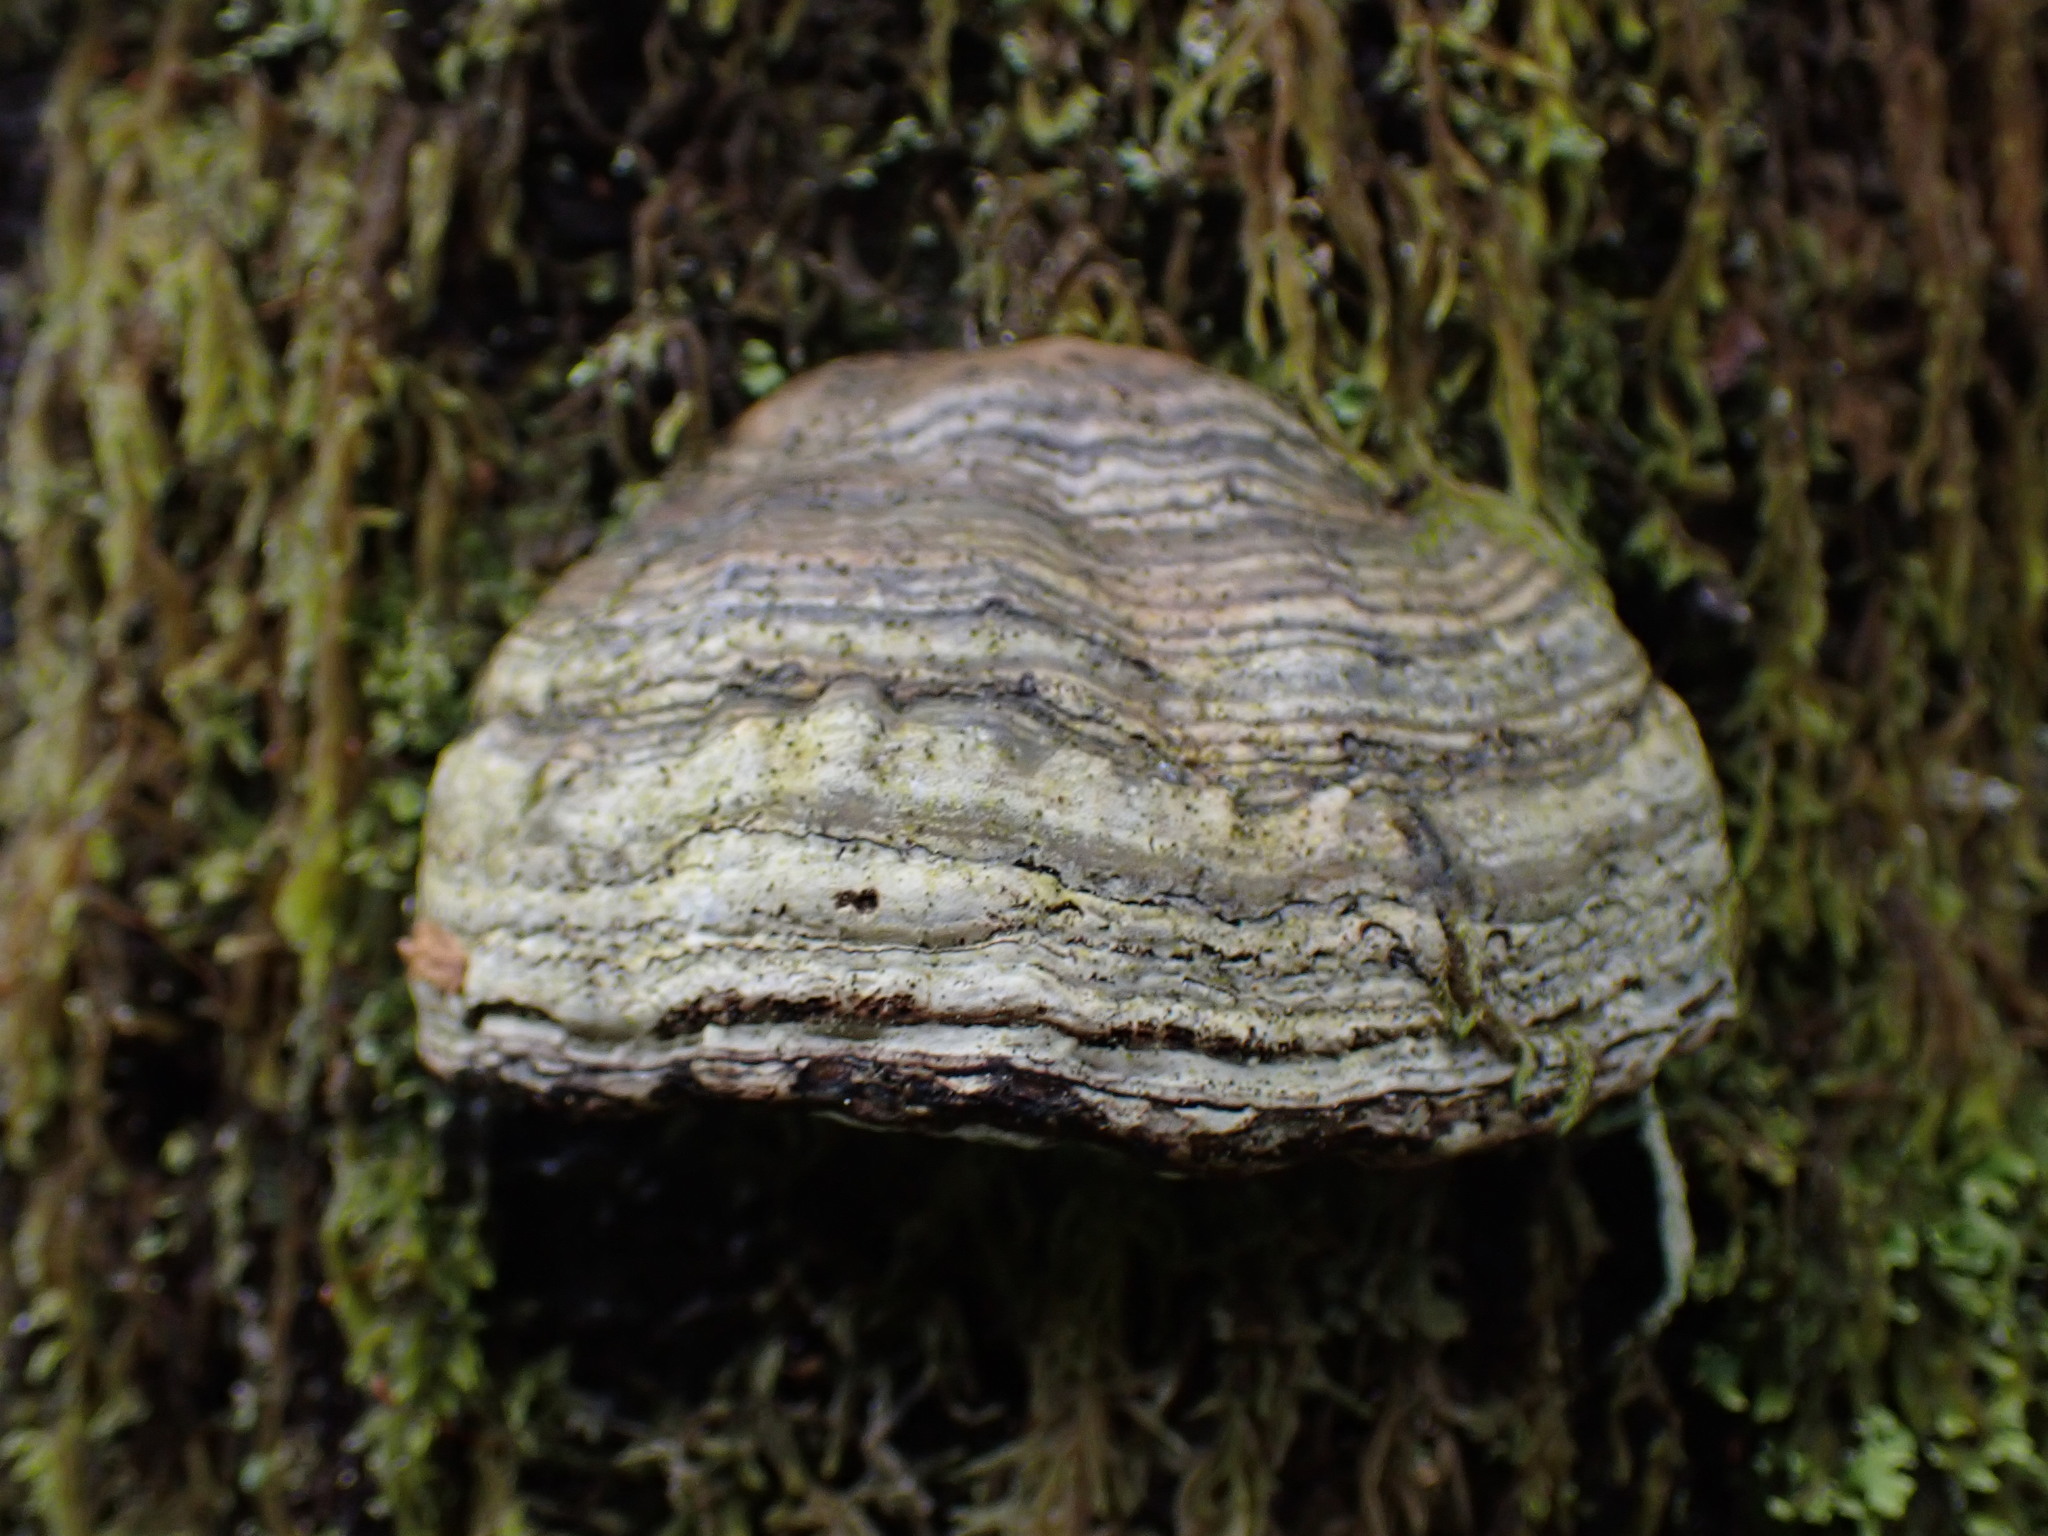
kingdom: Fungi
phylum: Basidiomycota
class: Agaricomycetes
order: Polyporales
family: Polyporaceae
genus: Fomes
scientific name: Fomes fomentarius
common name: Hoof fungus
